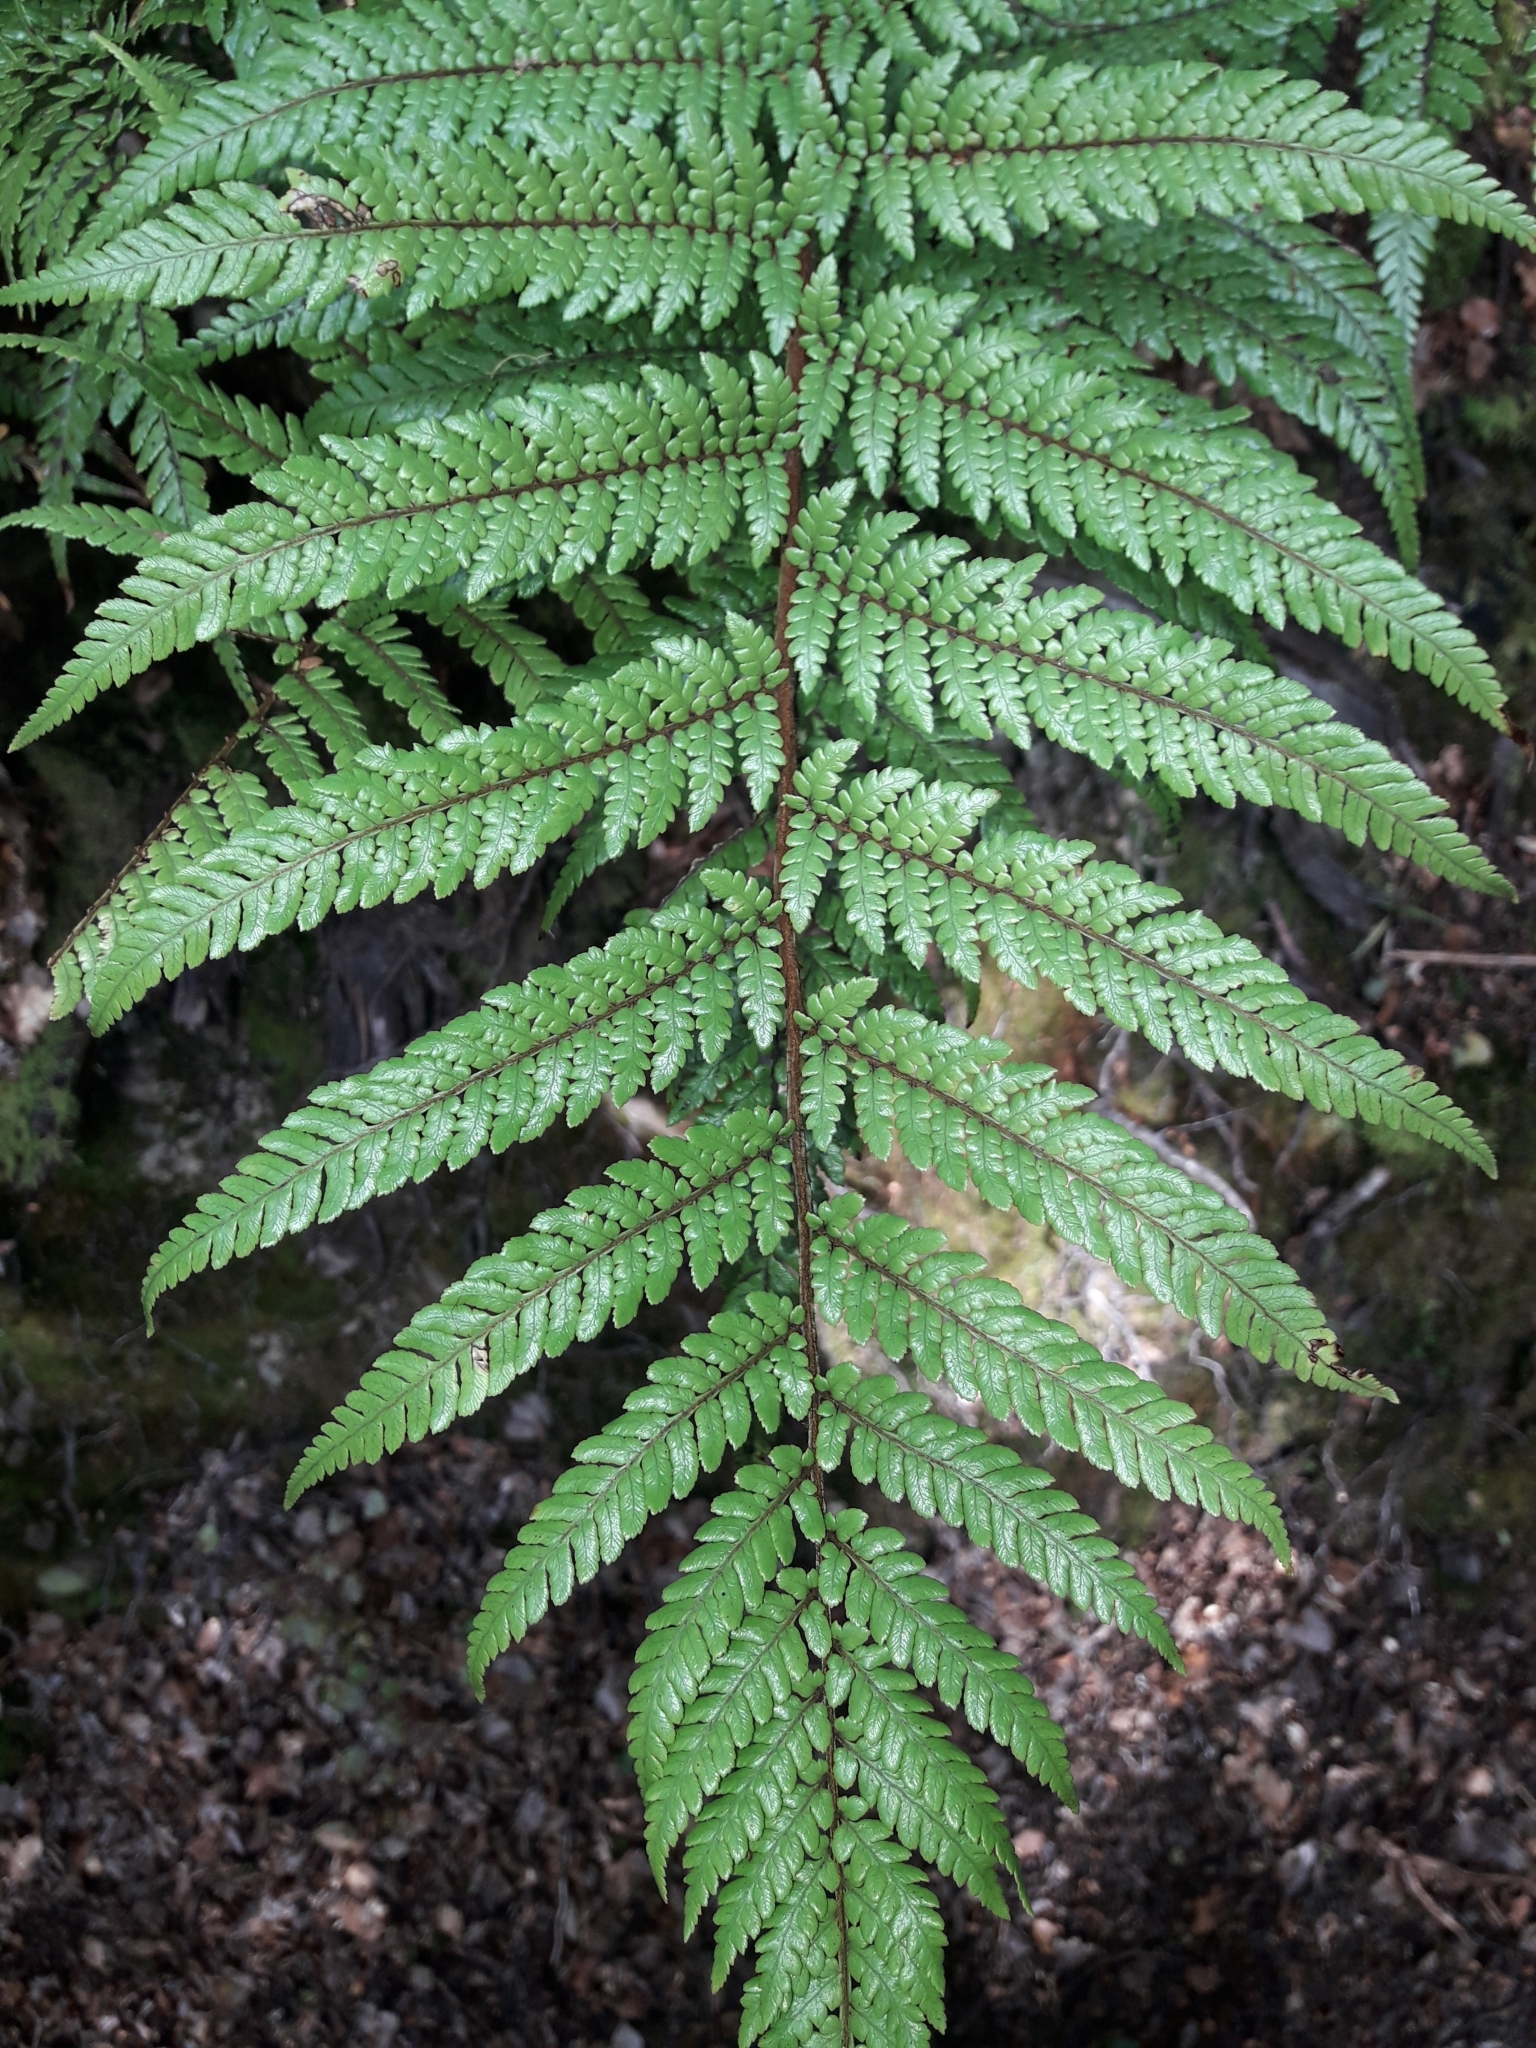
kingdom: Plantae
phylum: Tracheophyta
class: Polypodiopsida
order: Cyatheales
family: Dicksoniaceae
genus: Dicksonia
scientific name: Dicksonia lanata
